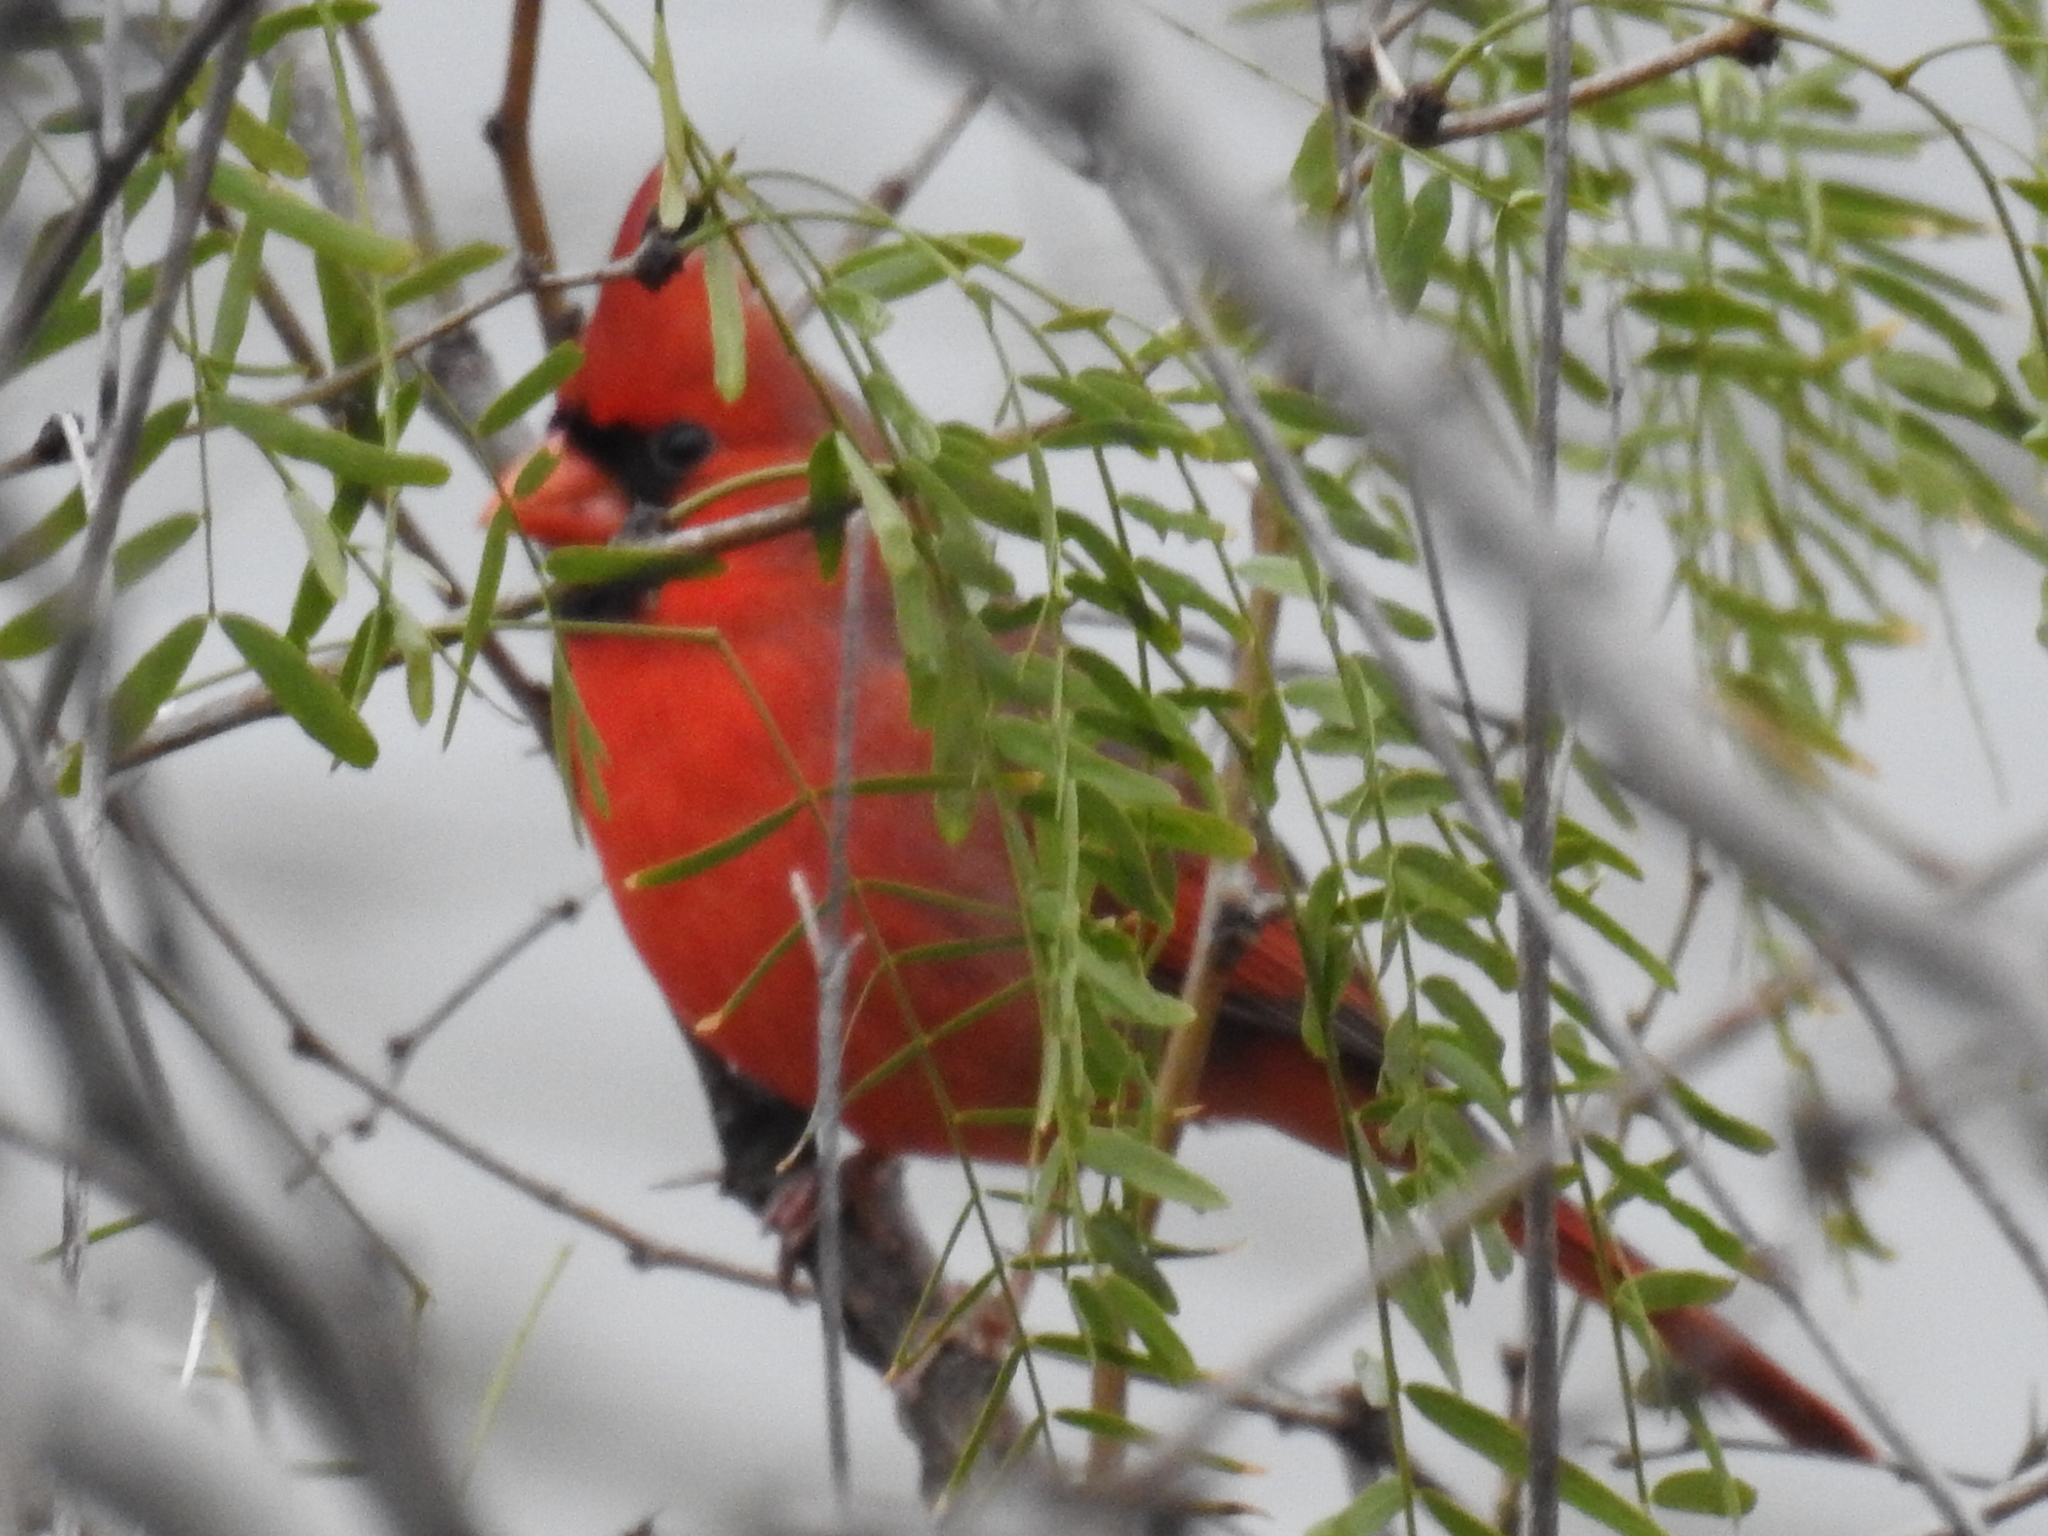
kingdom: Animalia
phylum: Chordata
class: Aves
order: Passeriformes
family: Cardinalidae
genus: Cardinalis
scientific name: Cardinalis cardinalis
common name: Northern cardinal
